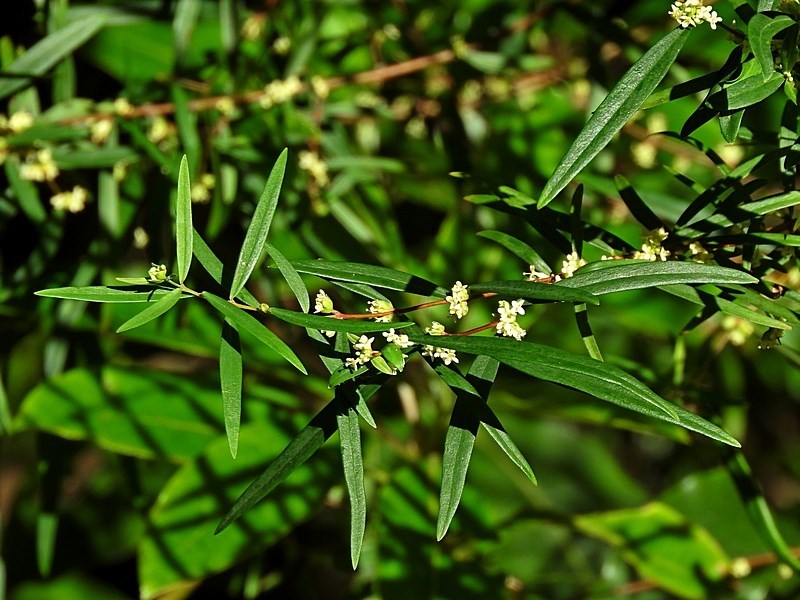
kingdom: Plantae
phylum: Tracheophyta
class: Magnoliopsida
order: Malvales
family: Thymelaeaceae
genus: Pimelea
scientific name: Pimelea axiflora
